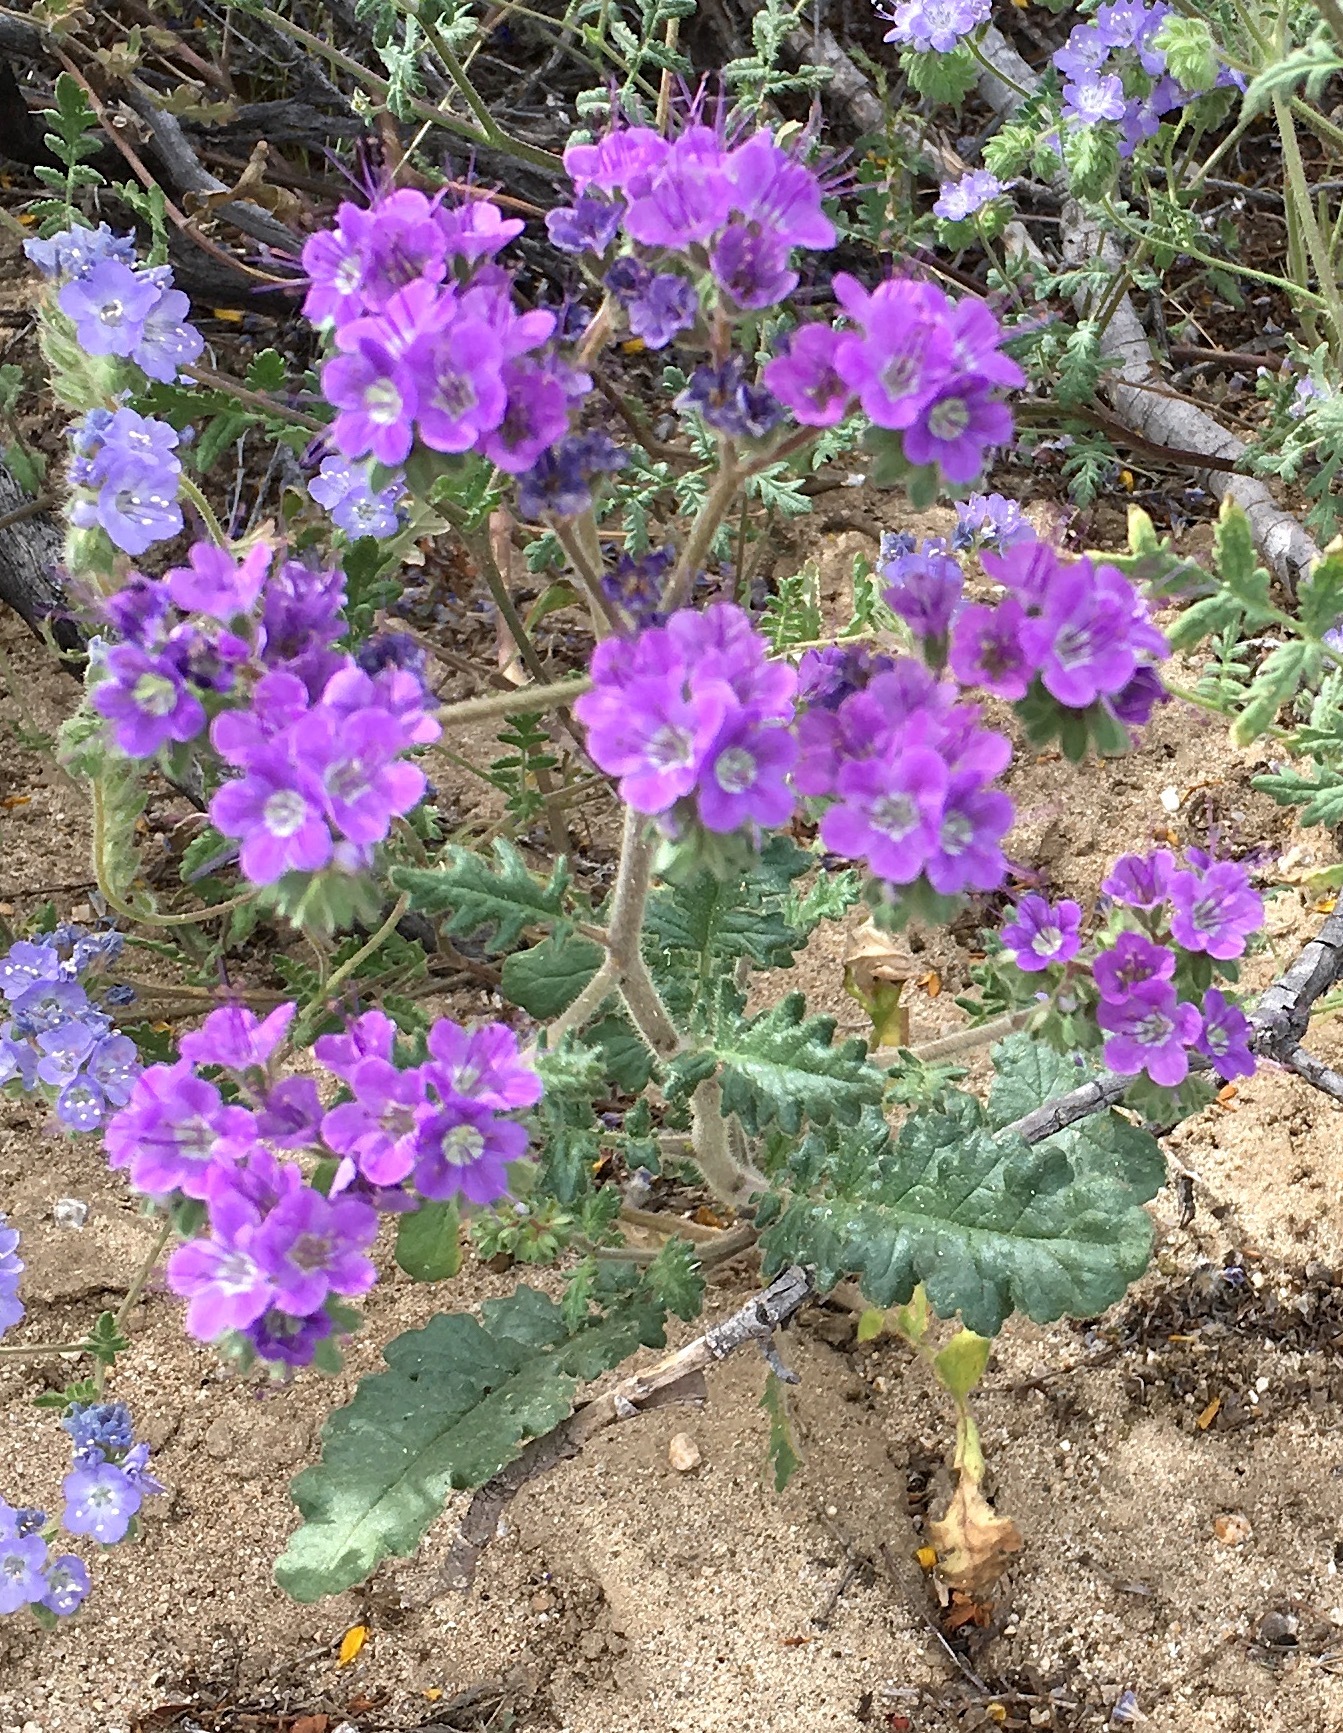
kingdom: Plantae
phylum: Tracheophyta
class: Magnoliopsida
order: Boraginales
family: Hydrophyllaceae
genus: Phacelia
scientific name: Phacelia crenulata
